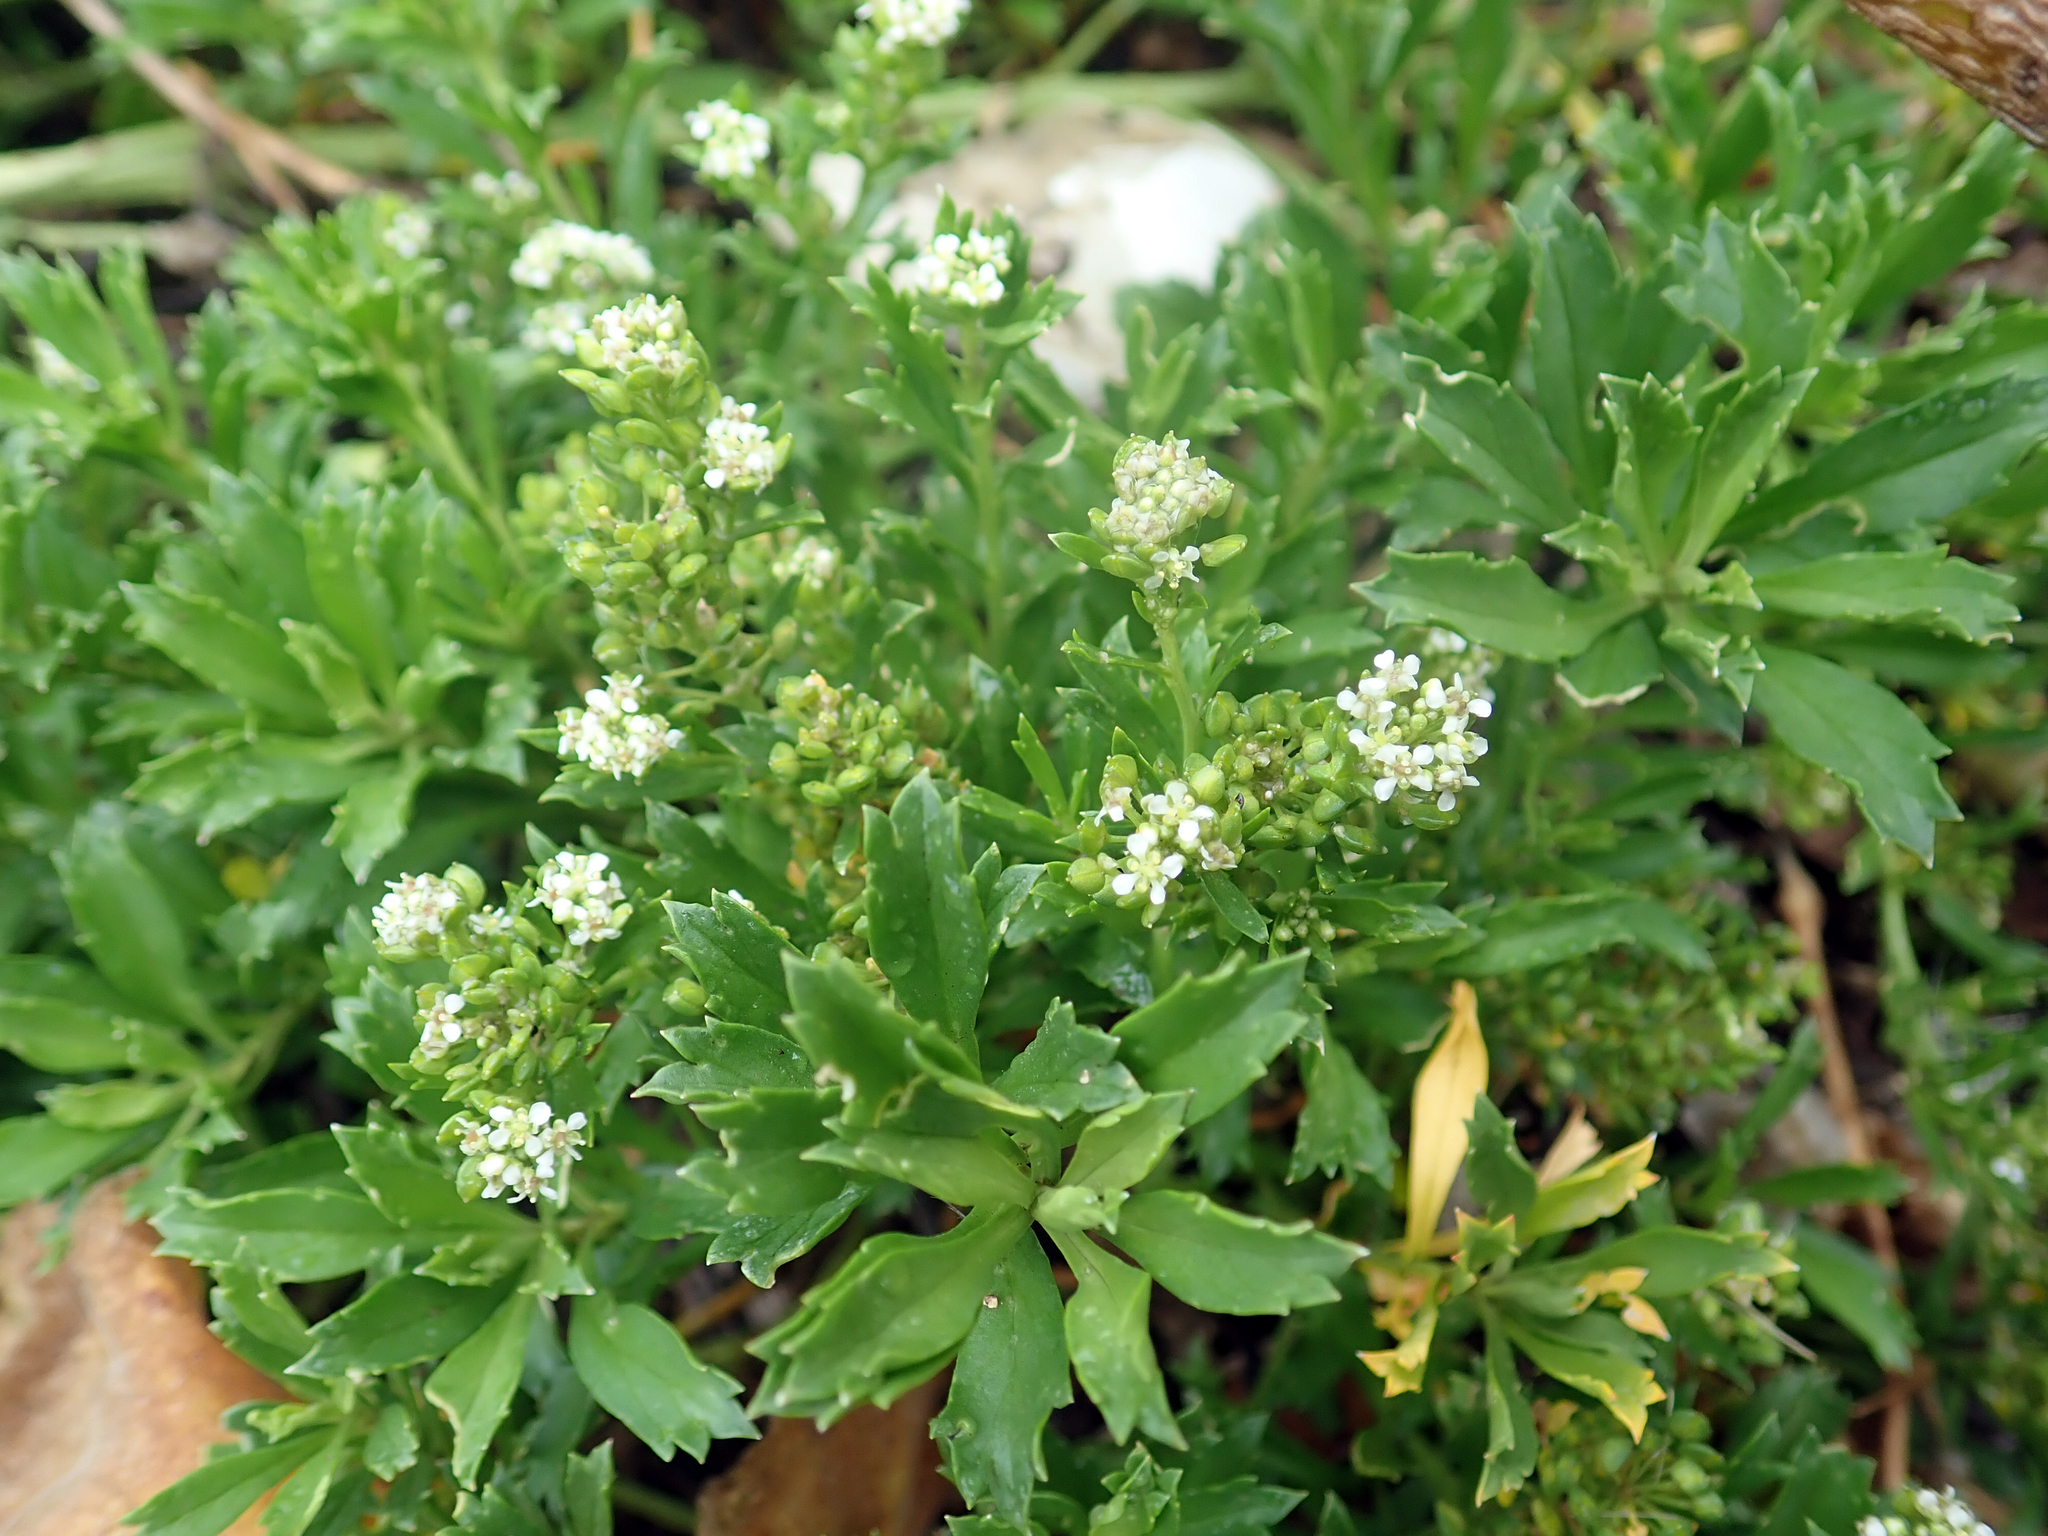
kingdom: Plantae
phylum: Tracheophyta
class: Magnoliopsida
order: Brassicales
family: Brassicaceae
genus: Lepidium
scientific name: Lepidium oblitum
